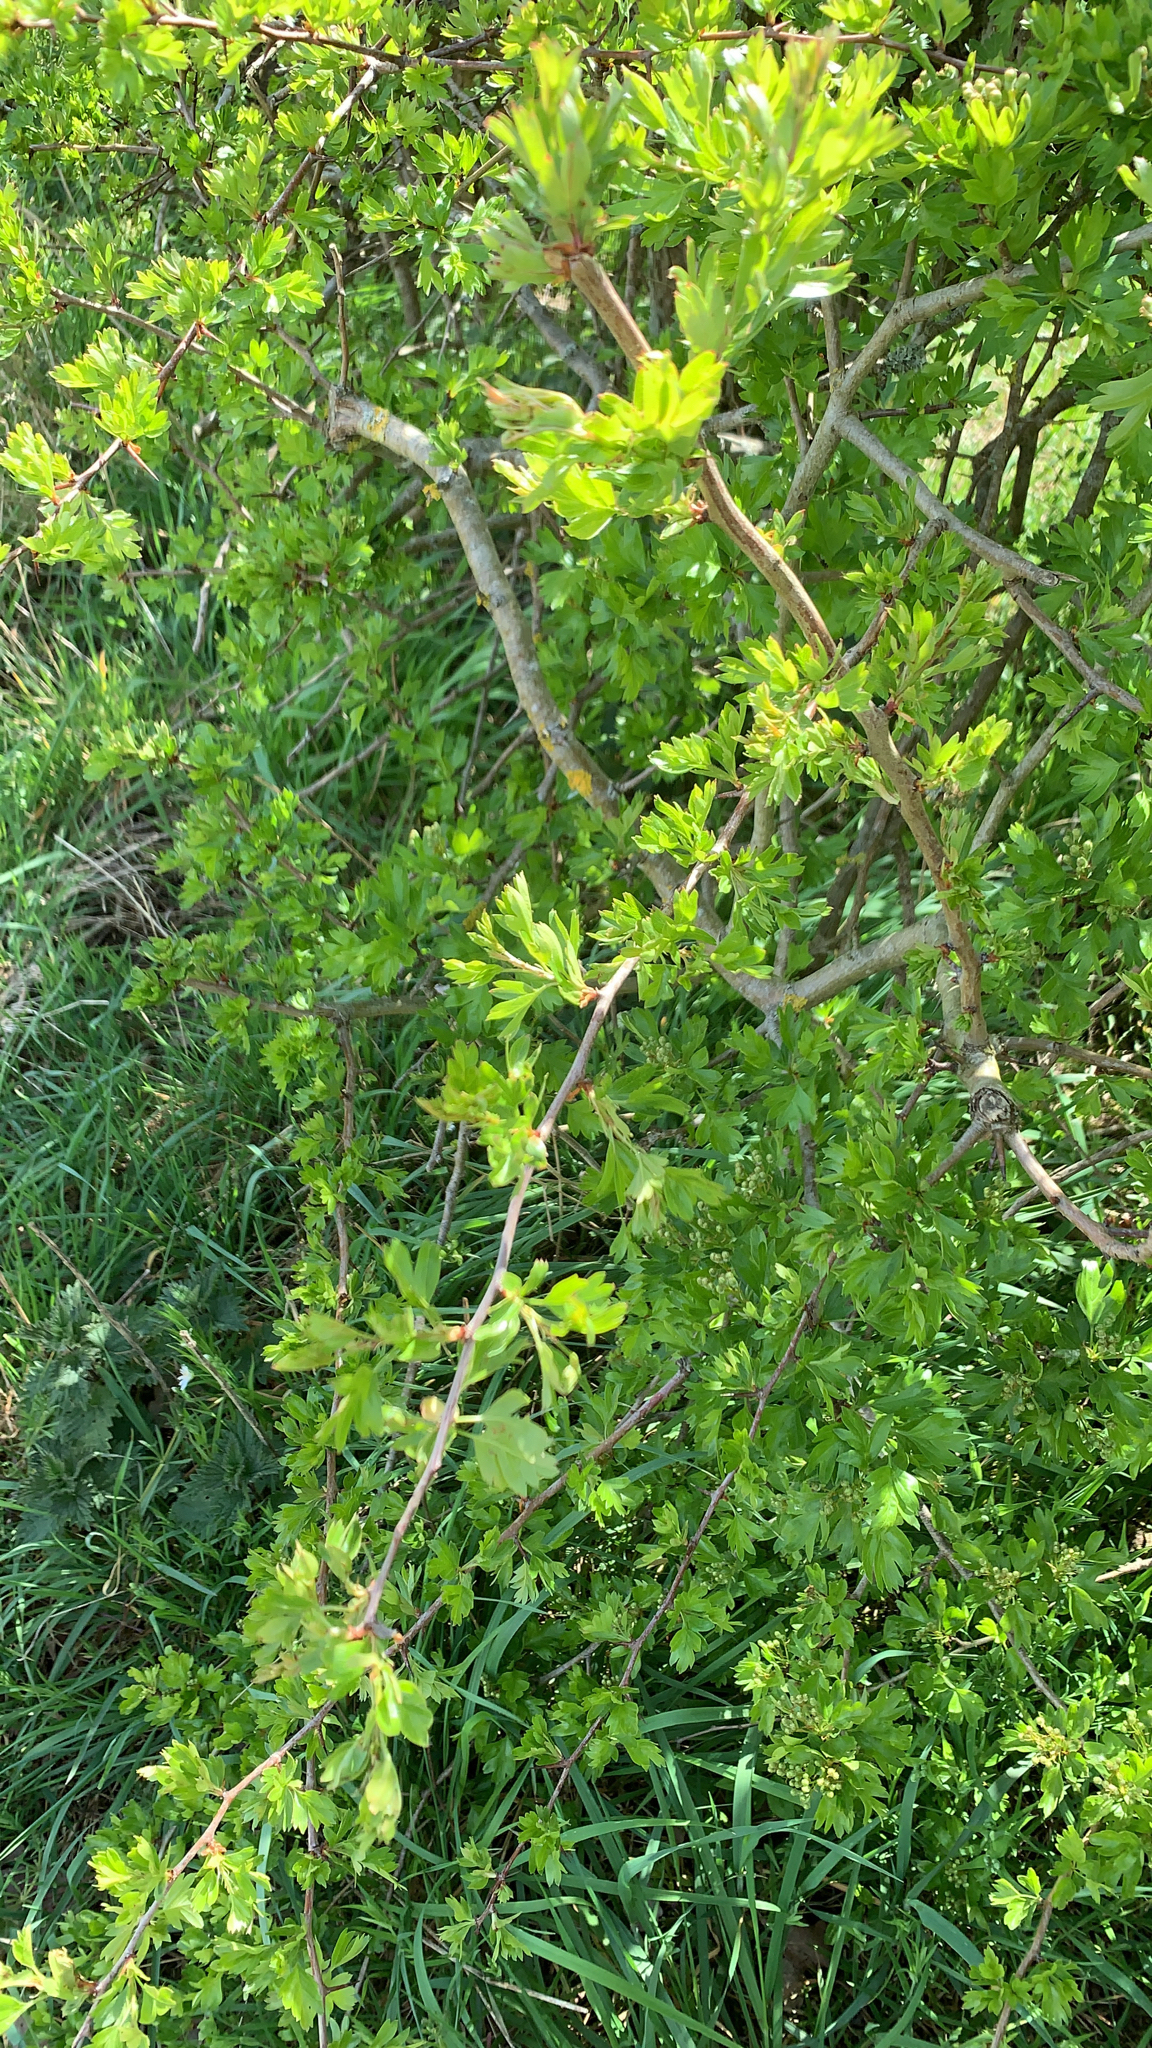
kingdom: Plantae
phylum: Tracheophyta
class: Magnoliopsida
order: Rosales
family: Rosaceae
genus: Crataegus
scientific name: Crataegus monogyna
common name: Hawthorn
